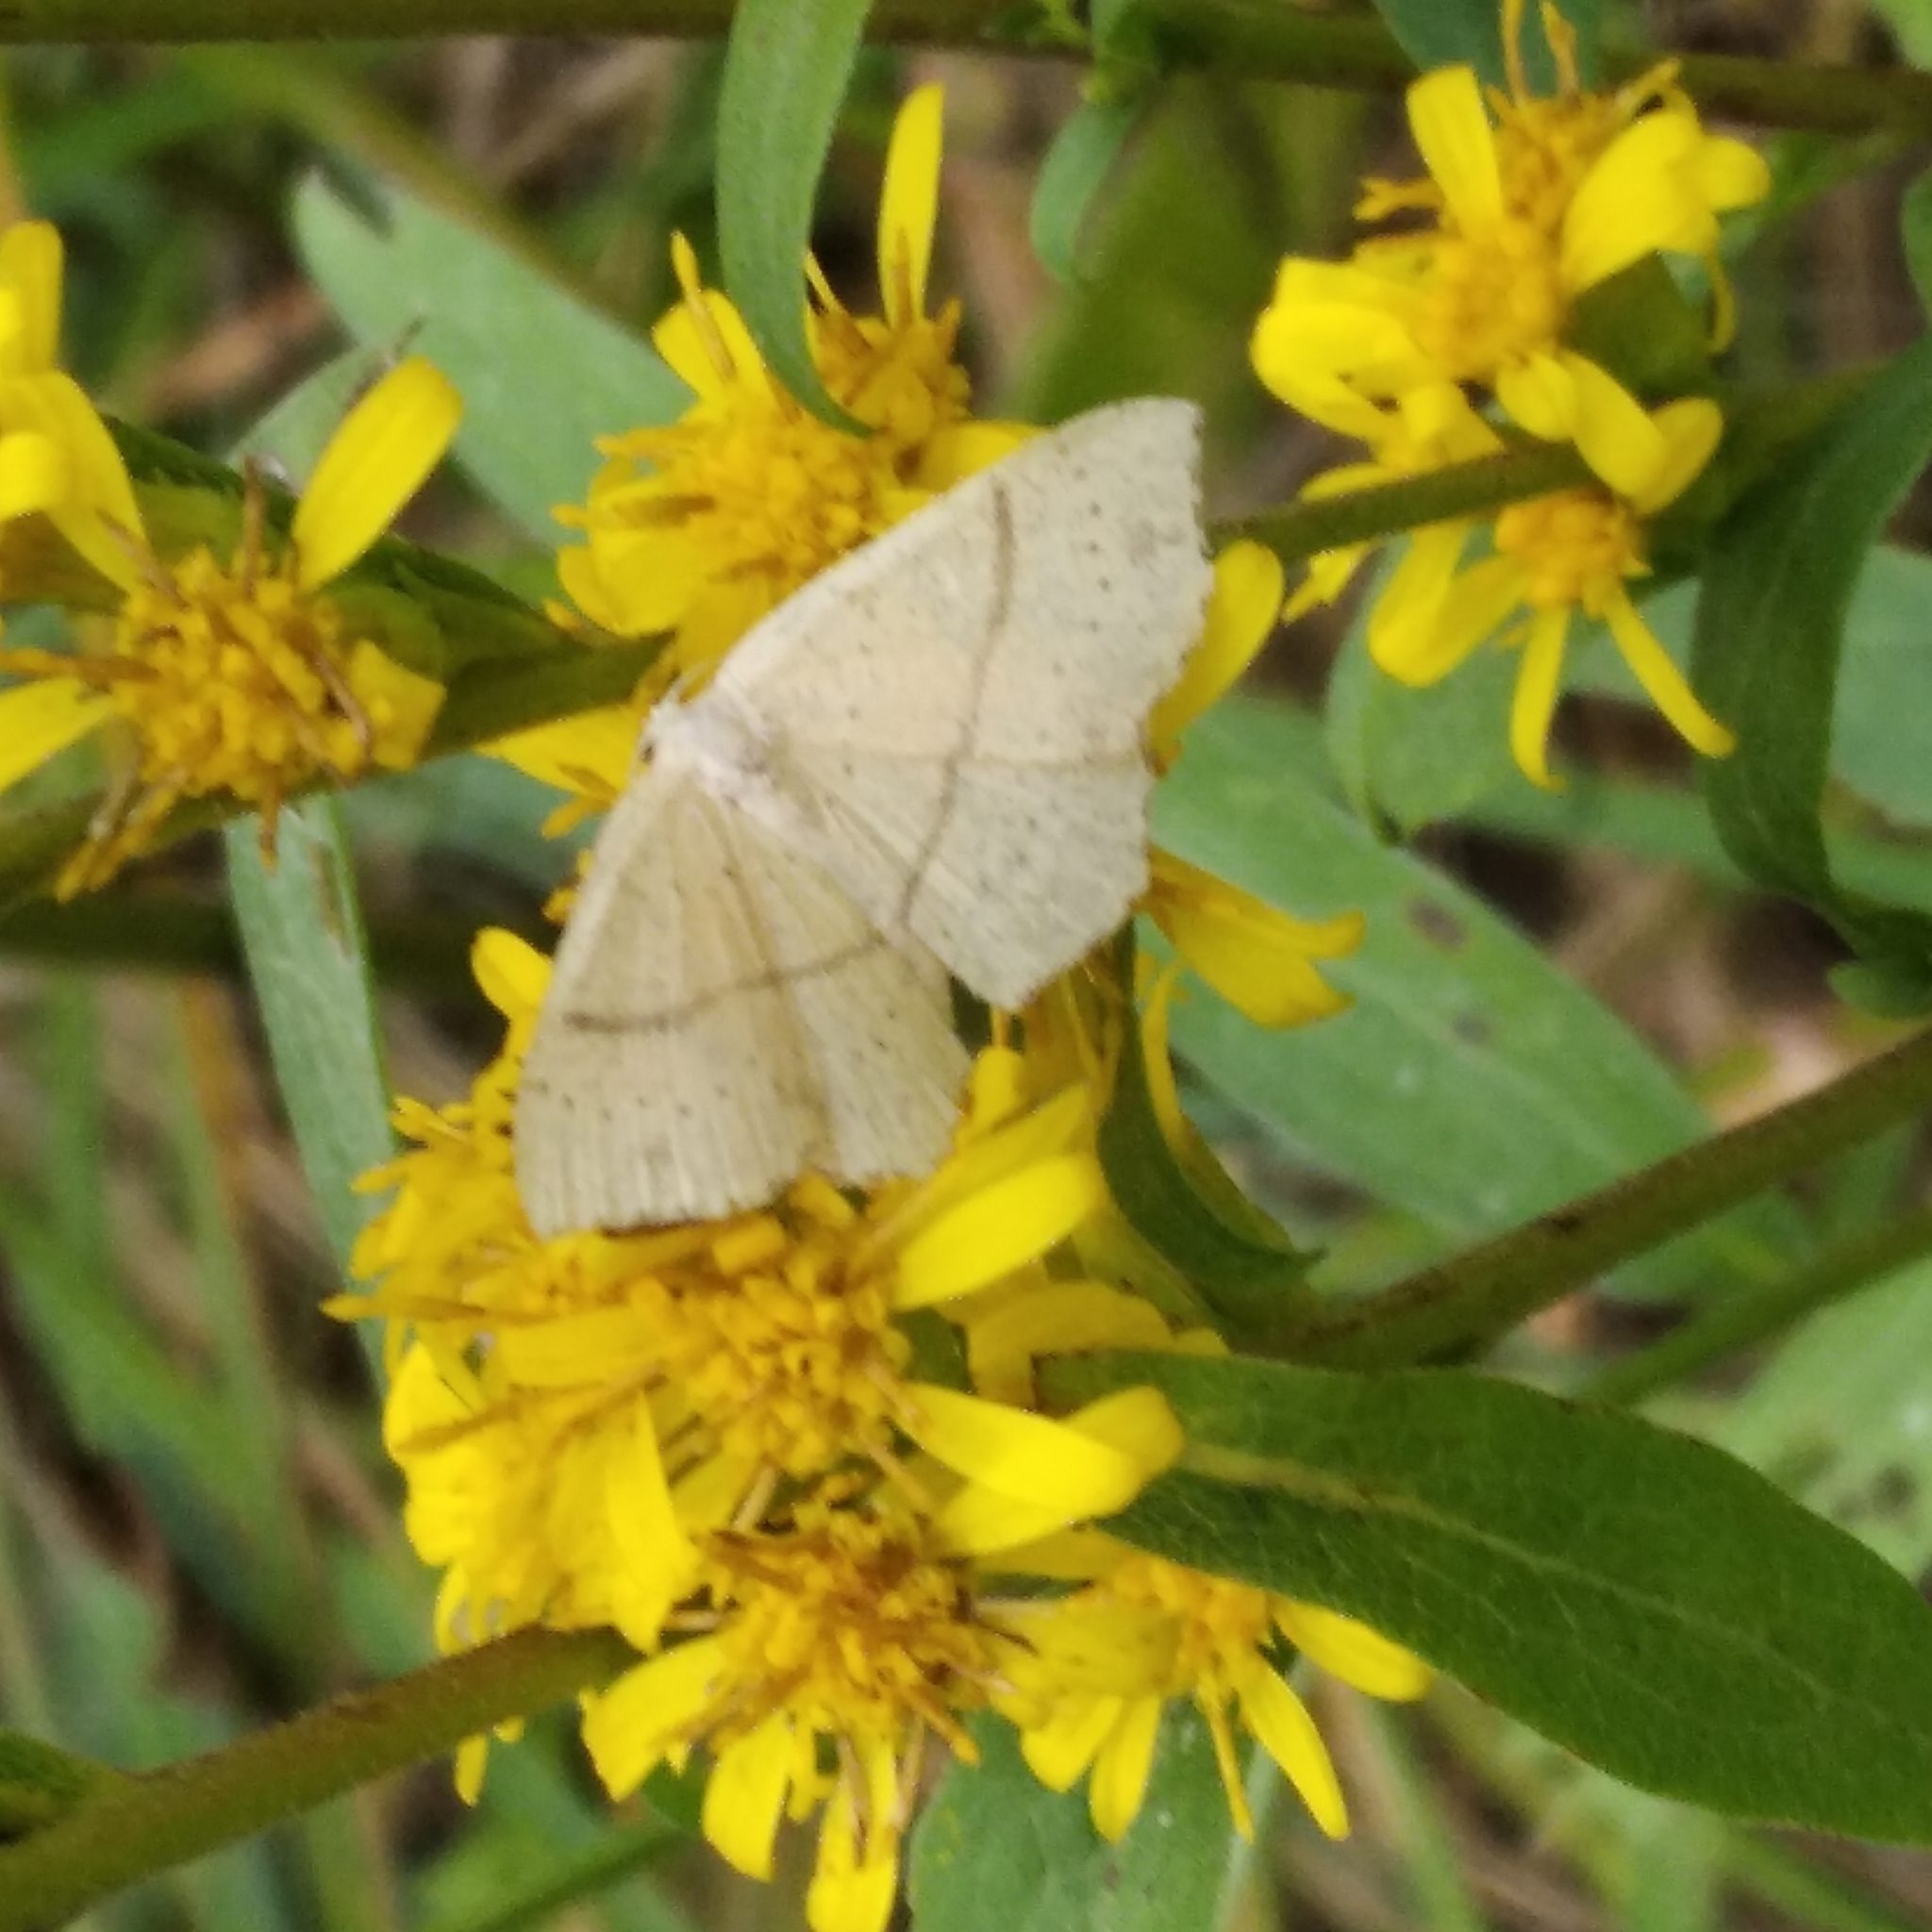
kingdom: Animalia
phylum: Arthropoda
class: Insecta
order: Lepidoptera
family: Geometridae
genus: Cyclophora
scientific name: Cyclophora punctaria
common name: Maiden's blush
